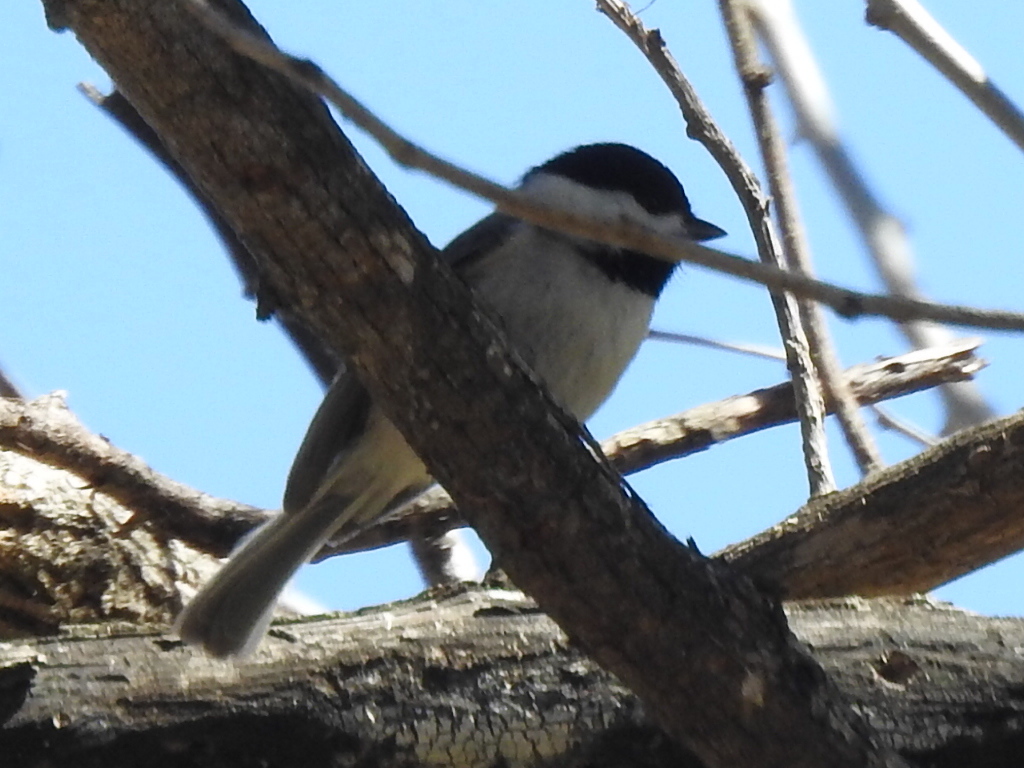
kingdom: Animalia
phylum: Chordata
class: Aves
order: Passeriformes
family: Paridae
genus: Poecile
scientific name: Poecile carolinensis
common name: Carolina chickadee
